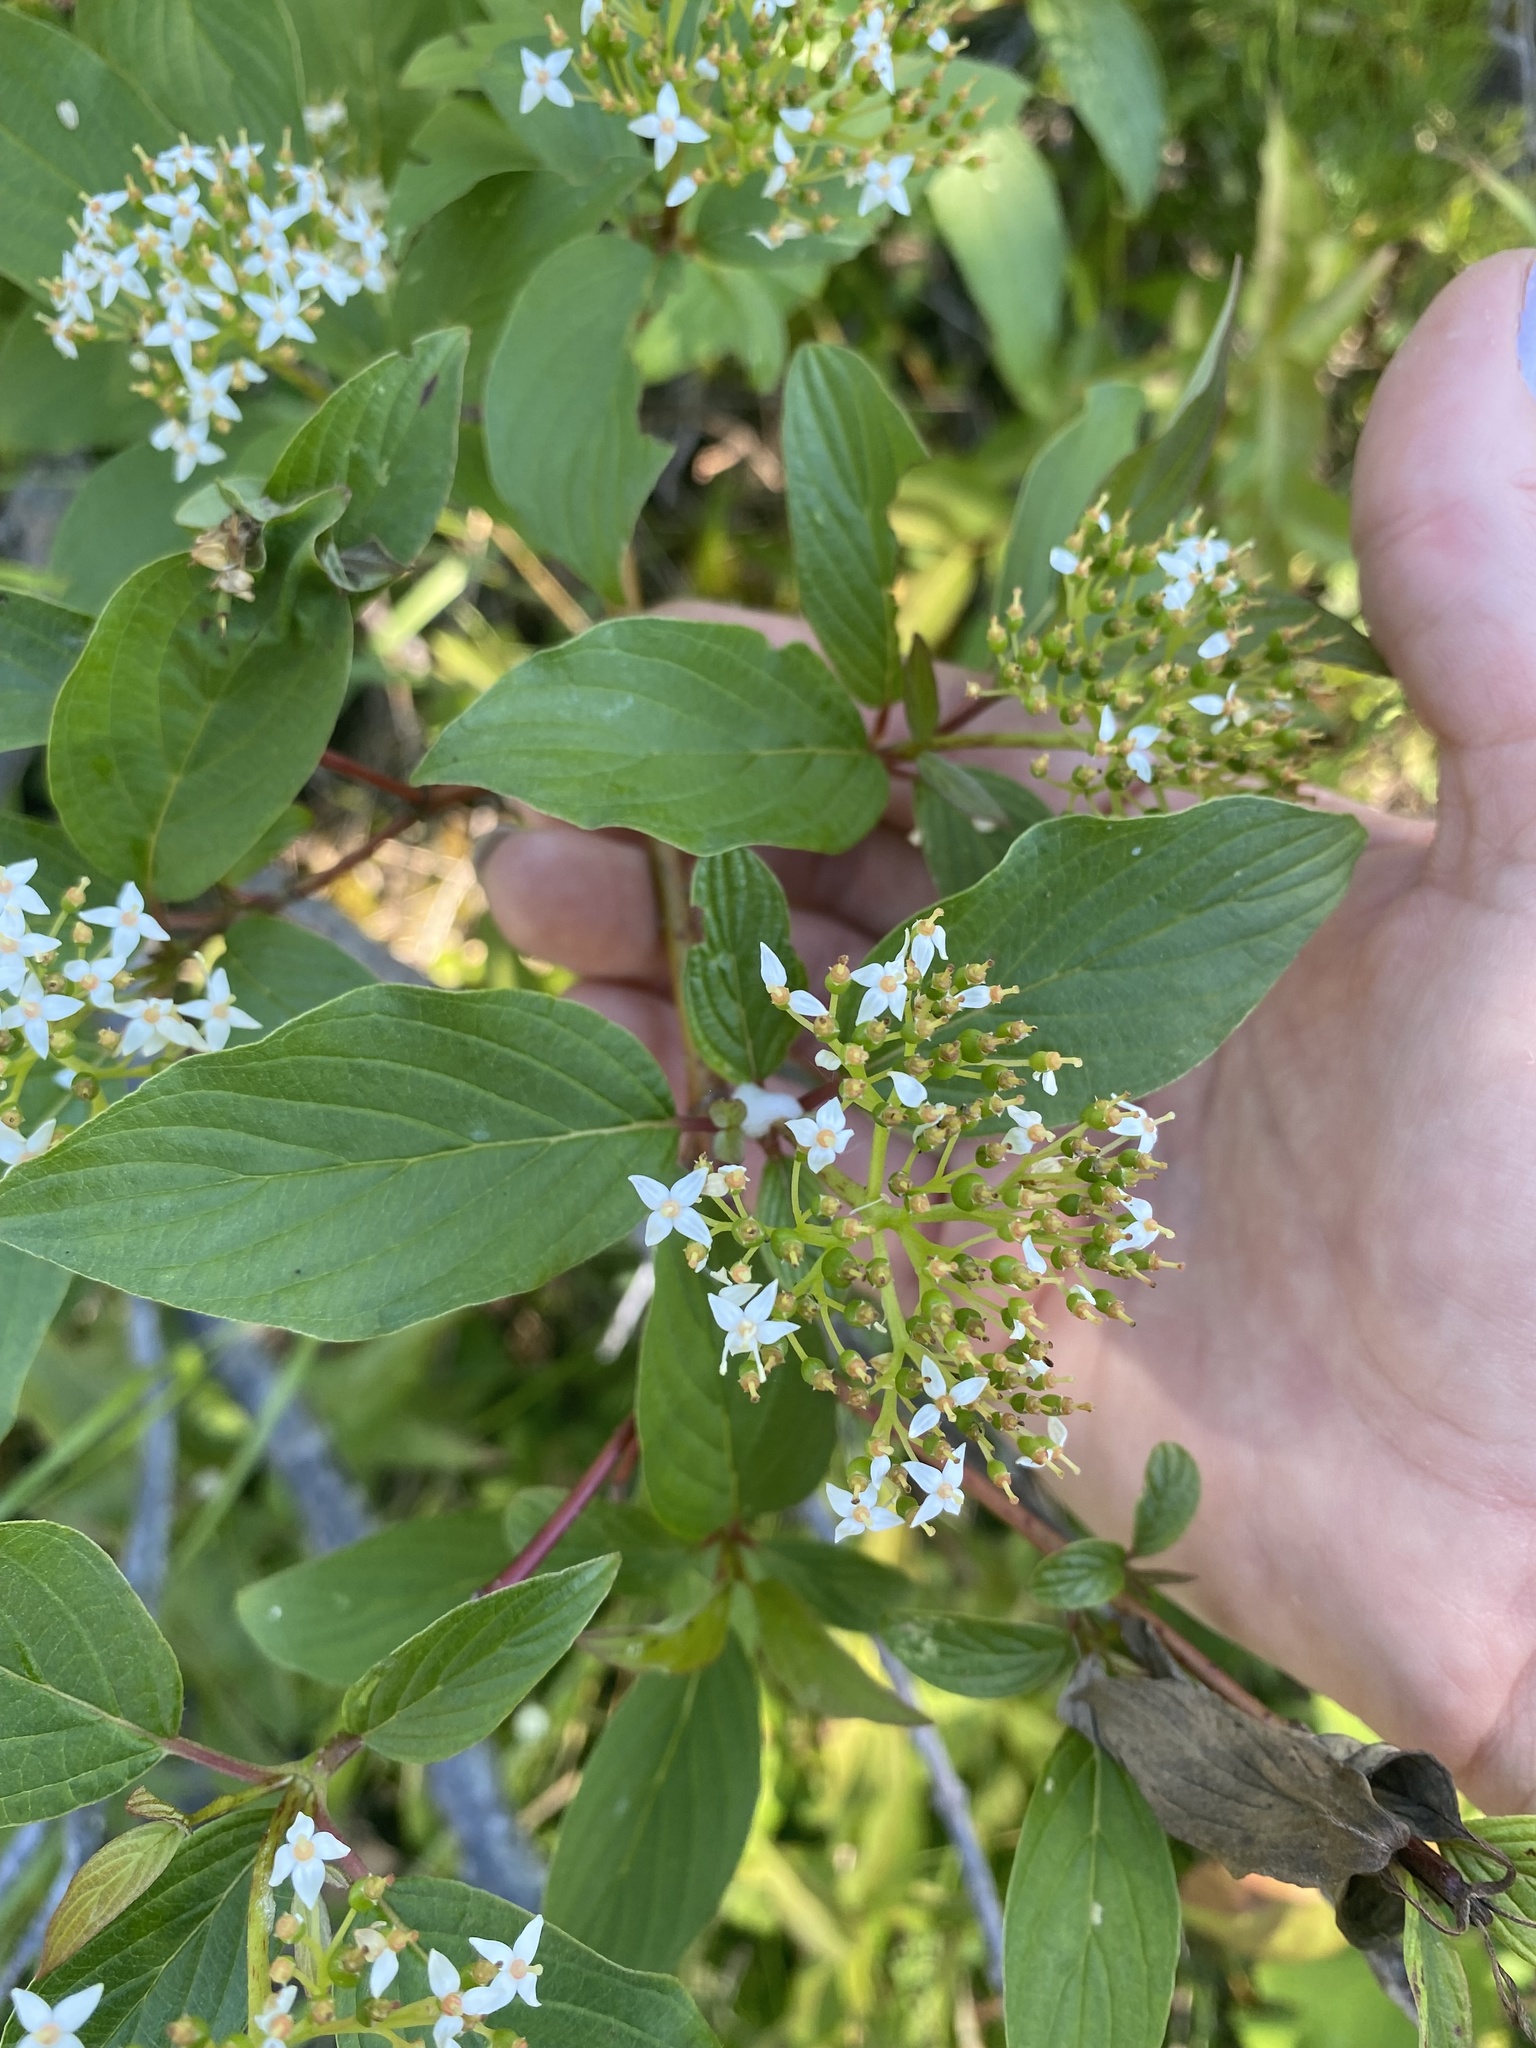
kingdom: Plantae
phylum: Tracheophyta
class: Magnoliopsida
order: Cornales
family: Cornaceae
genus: Cornus
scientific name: Cornus sericea
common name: Red-osier dogwood
